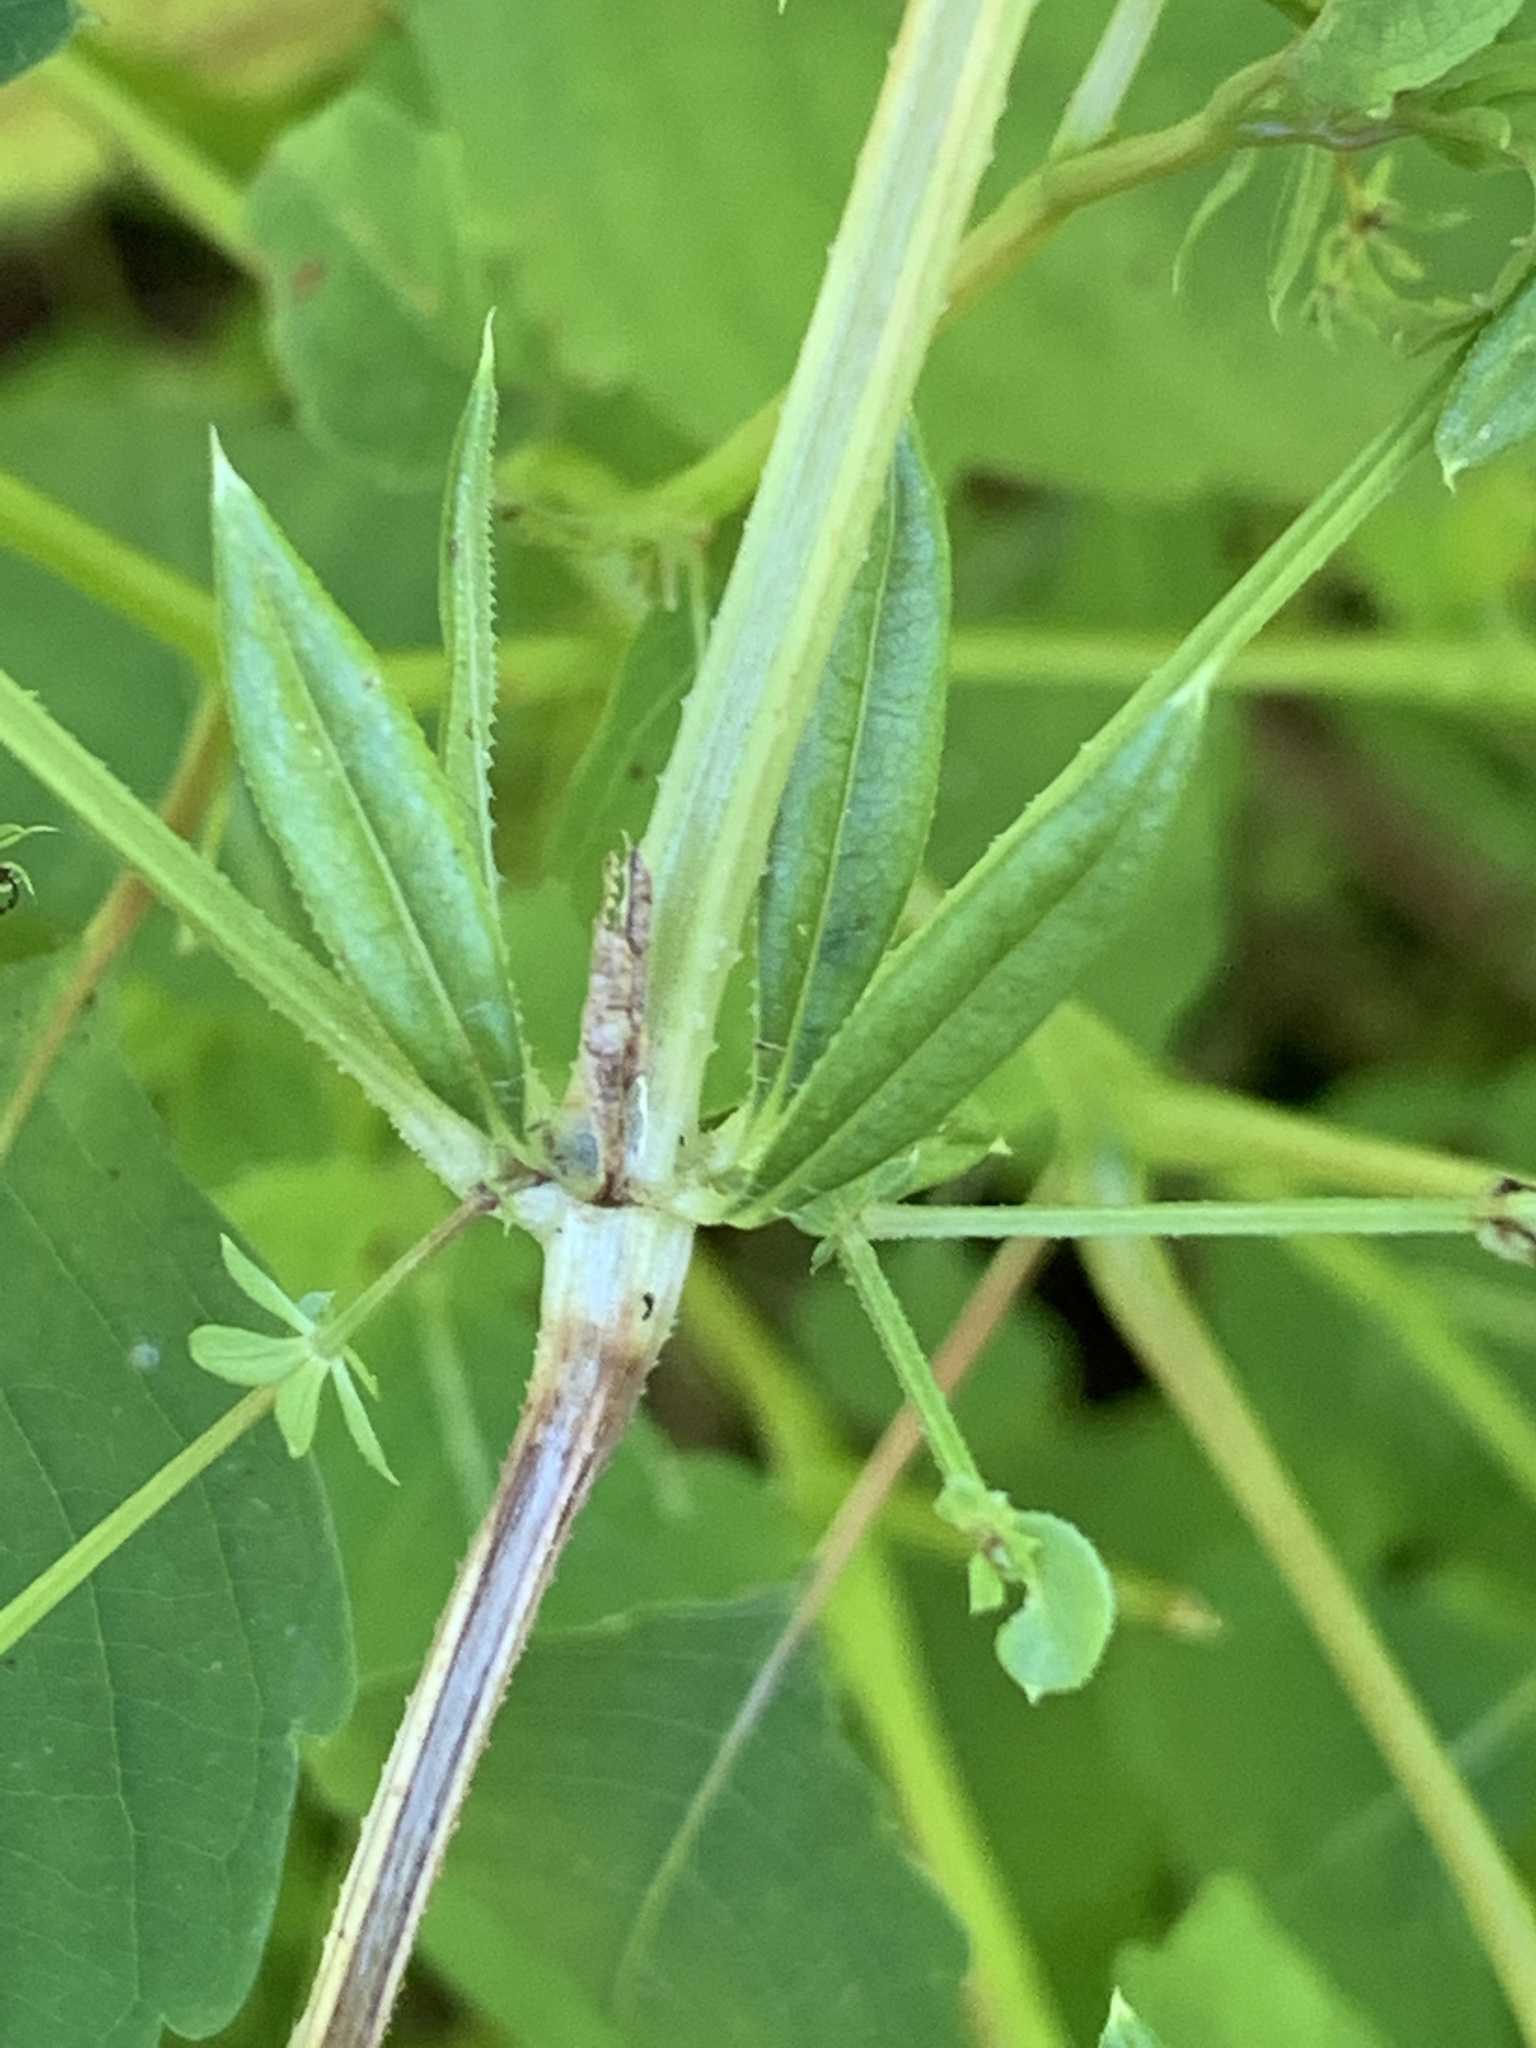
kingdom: Plantae
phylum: Tracheophyta
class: Magnoliopsida
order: Gentianales
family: Rubiaceae
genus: Galium
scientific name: Galium asprellum
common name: Rough bedstraw
